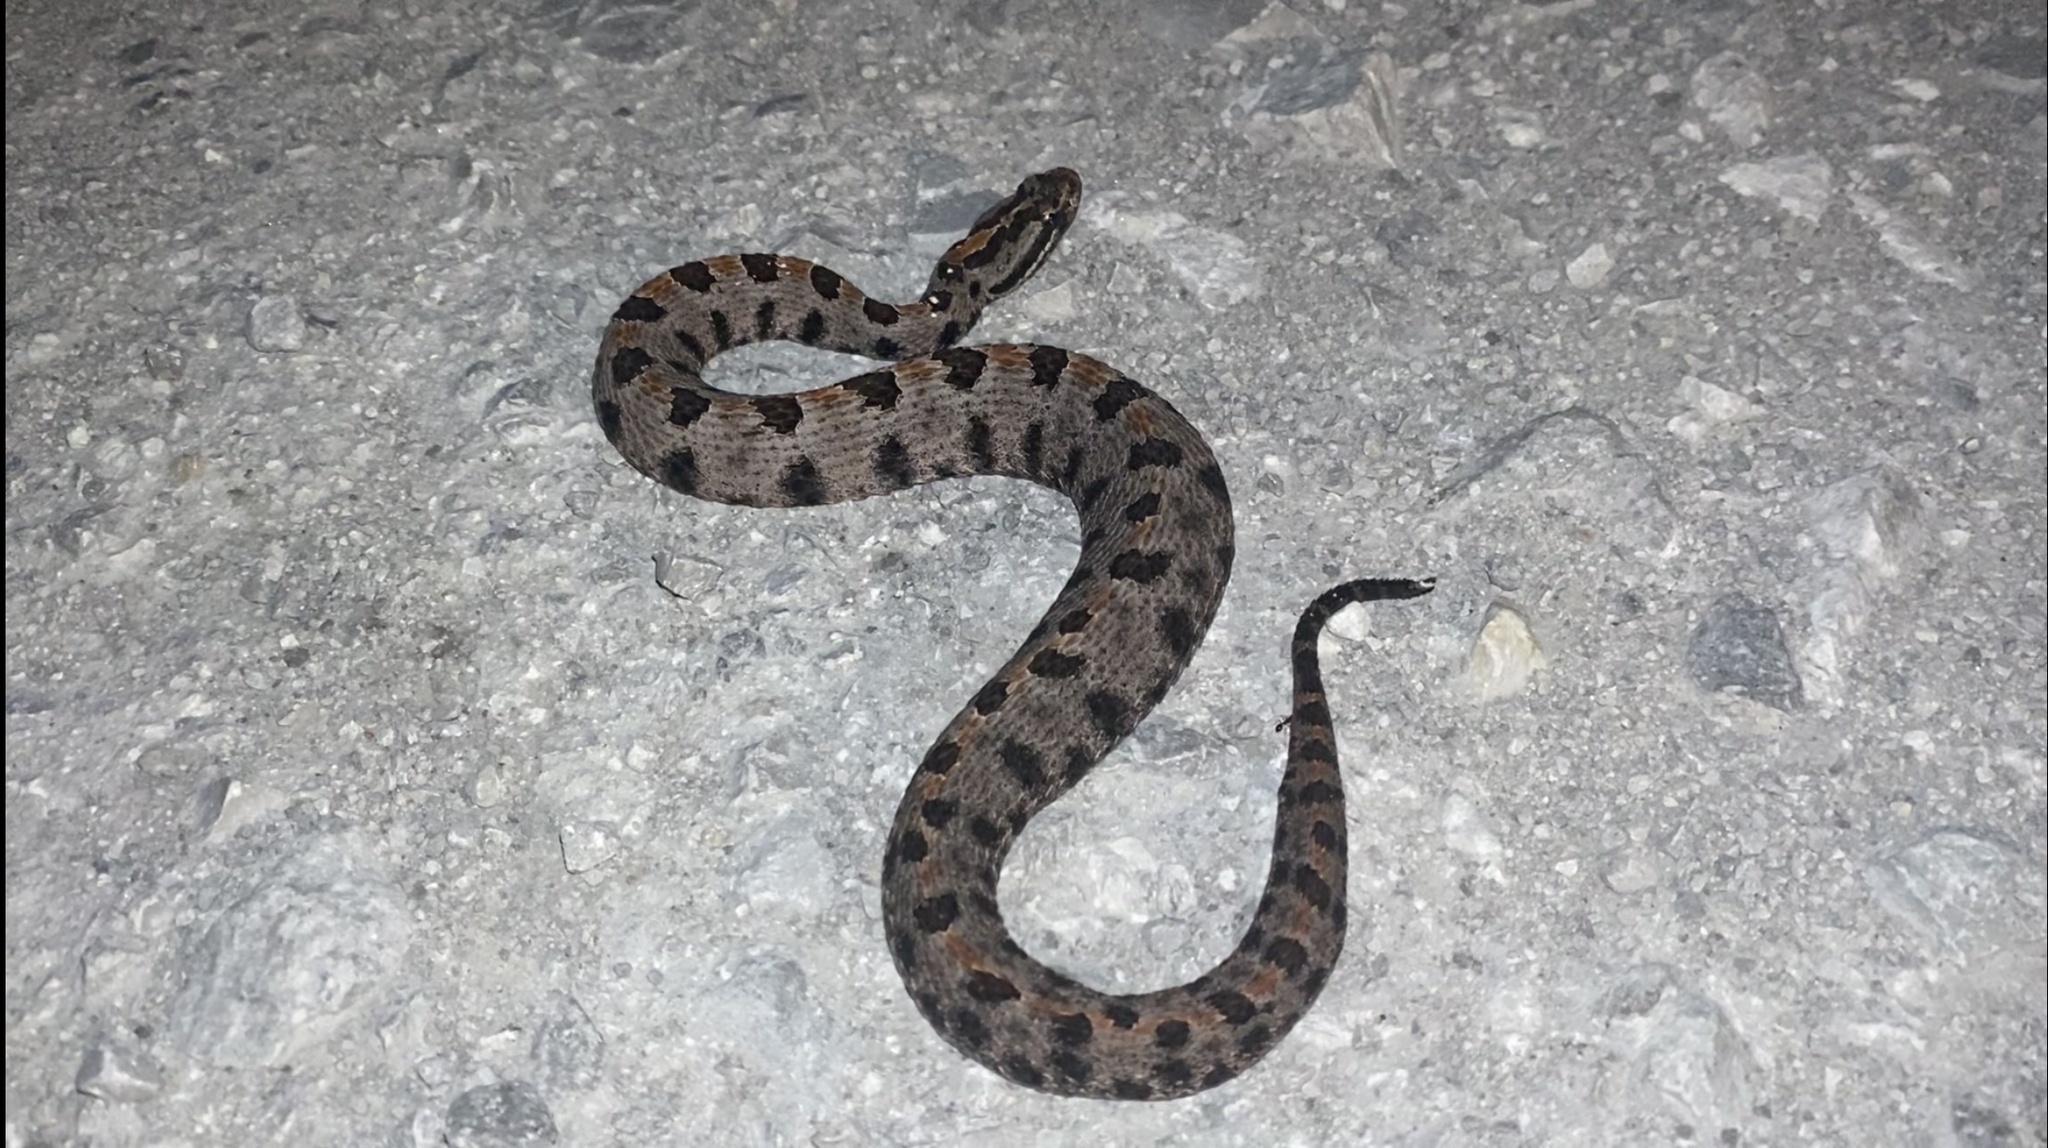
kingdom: Animalia
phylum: Chordata
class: Squamata
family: Viperidae
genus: Sistrurus
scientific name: Sistrurus miliarius
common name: Pygmy rattlesnake
